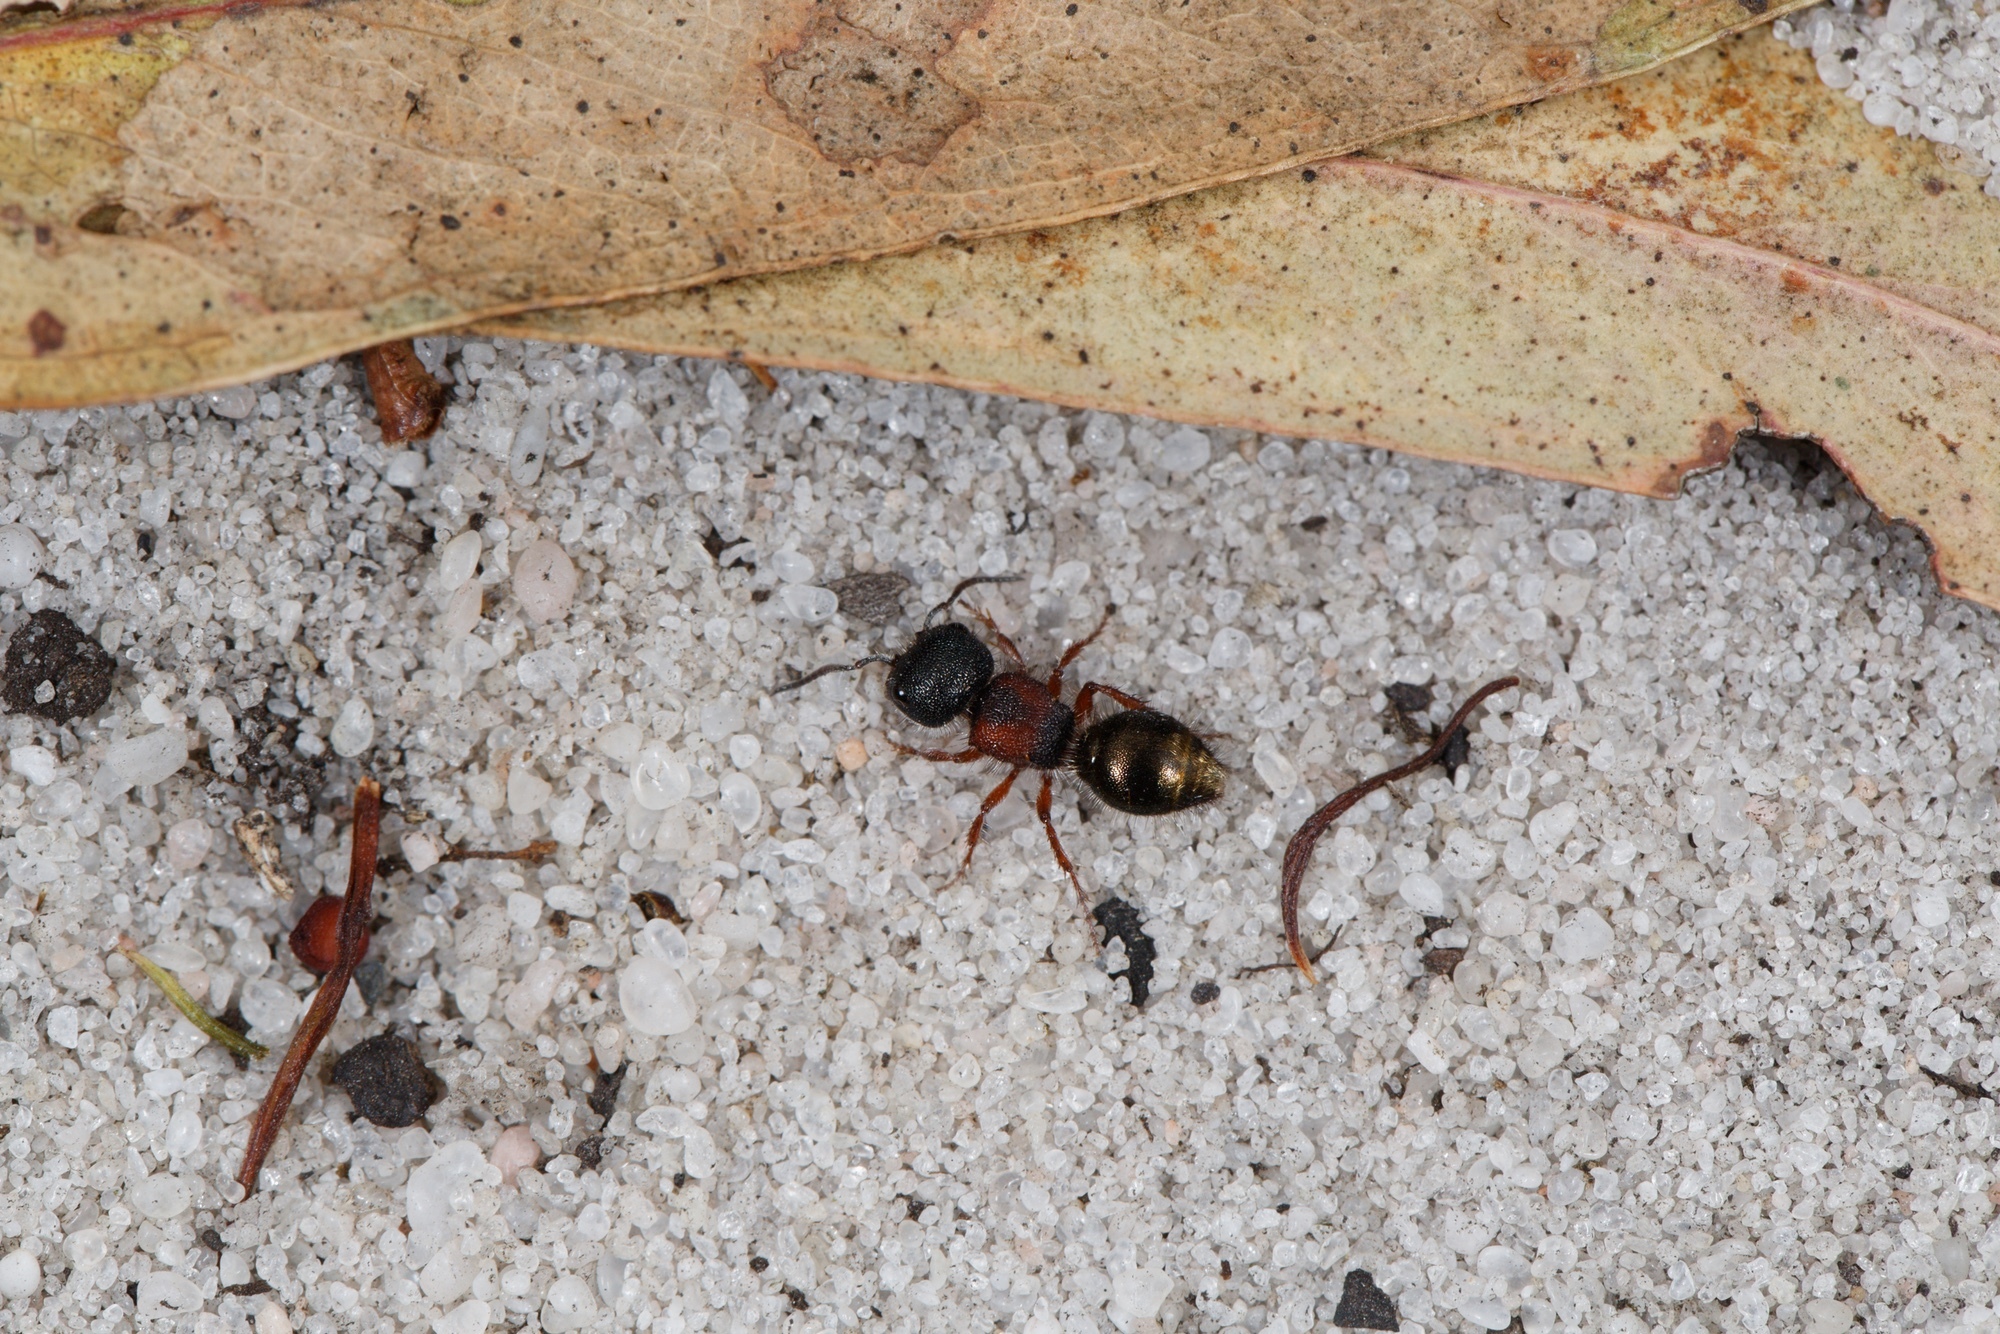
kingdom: Animalia
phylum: Arthropoda
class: Insecta
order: Hymenoptera
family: Mutillidae
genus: Ephutomorpha
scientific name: Ephutomorpha
